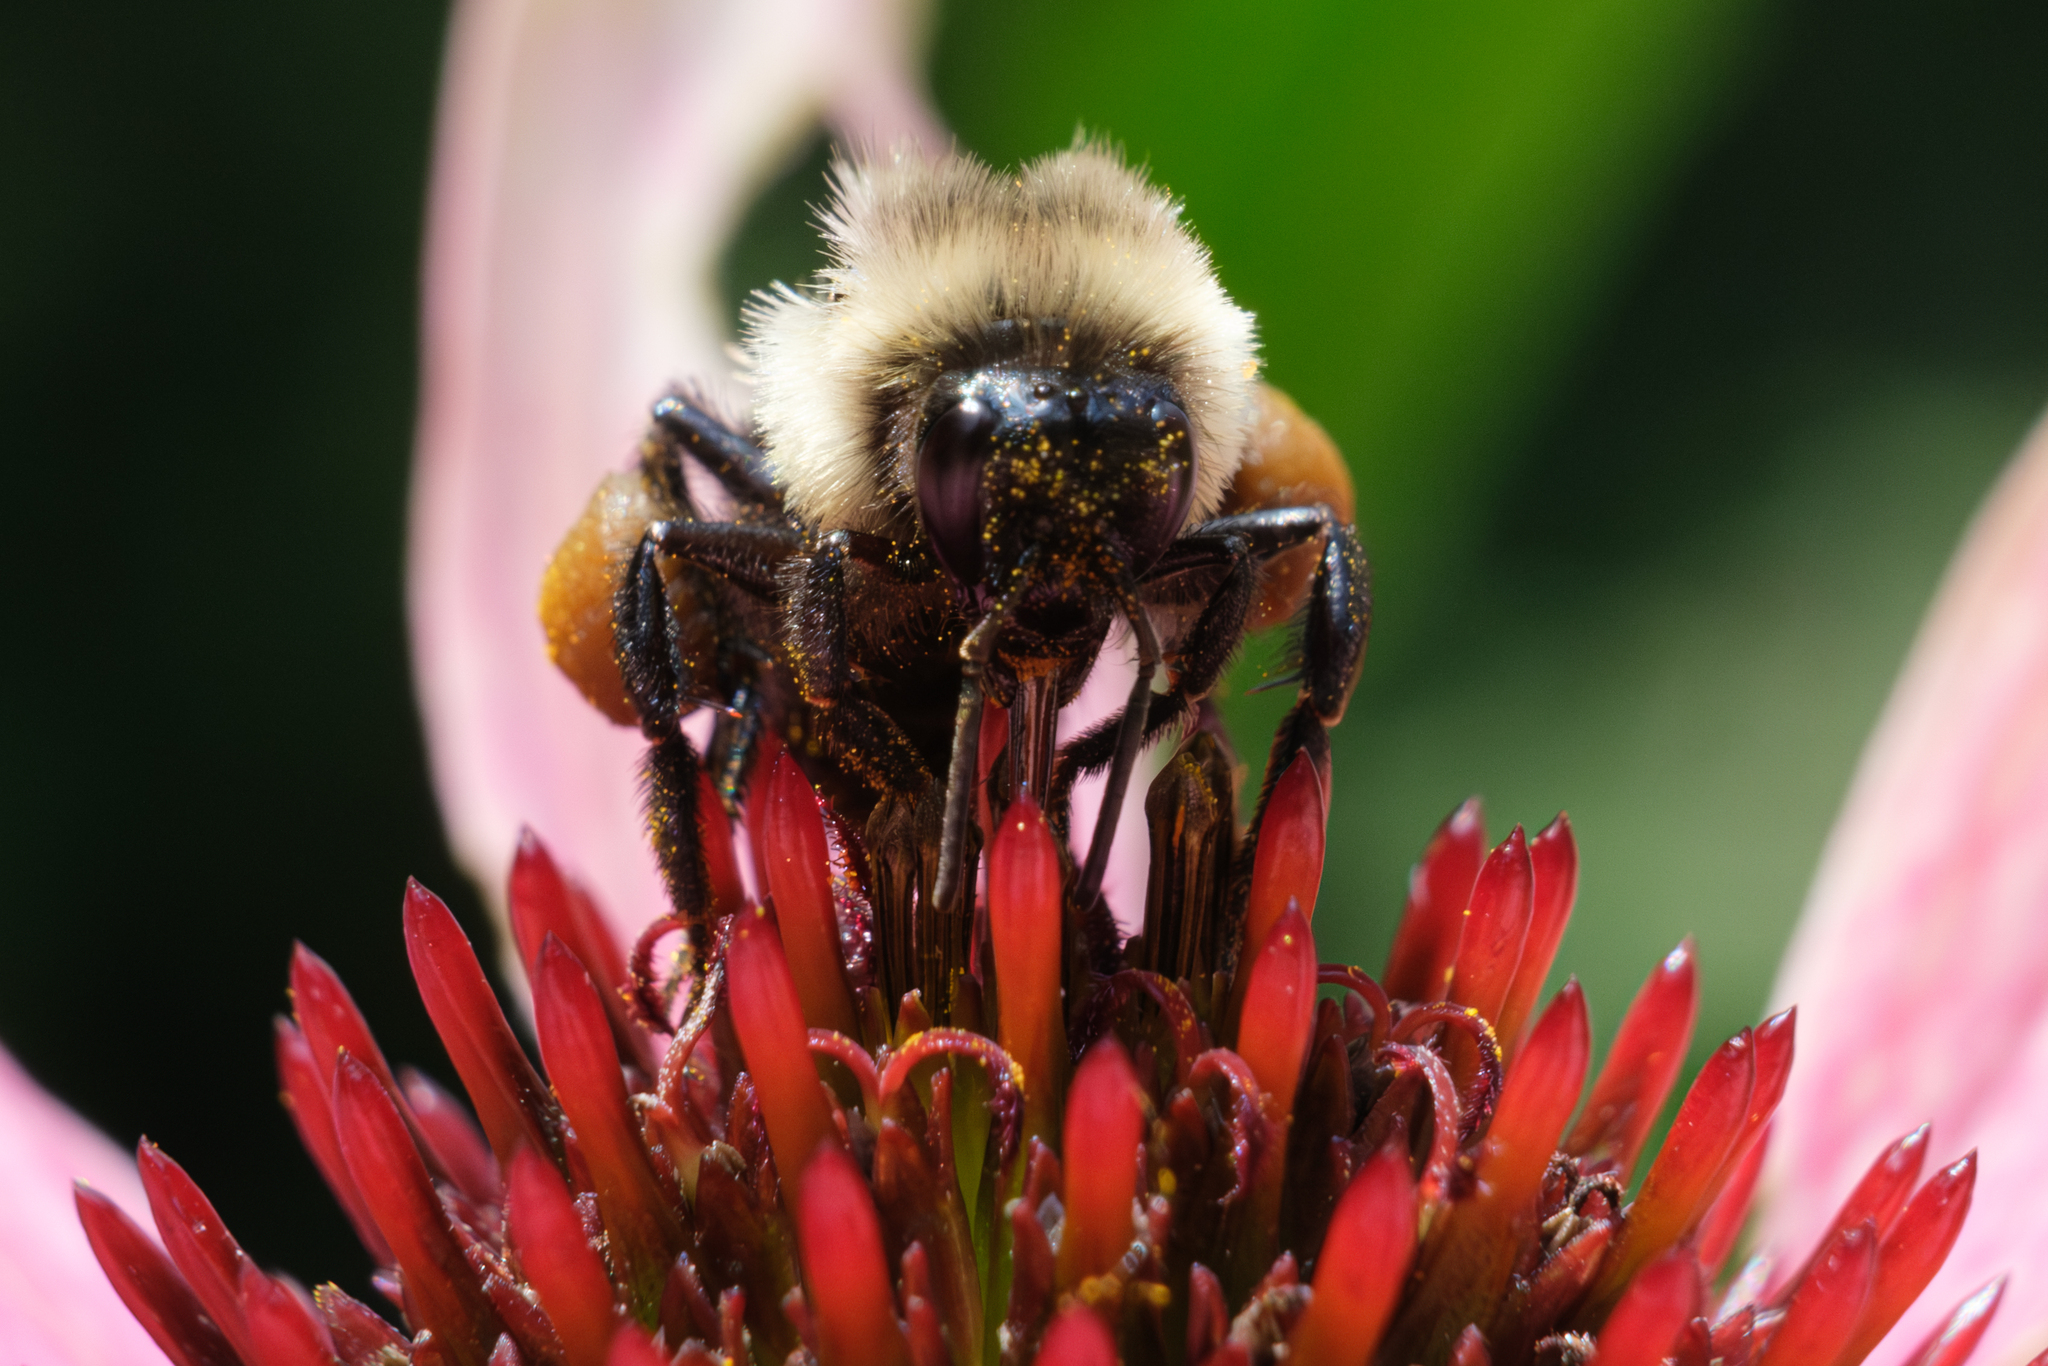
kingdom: Animalia
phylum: Arthropoda
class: Insecta
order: Hymenoptera
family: Apidae
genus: Bombus
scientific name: Bombus impatiens
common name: Common eastern bumble bee
